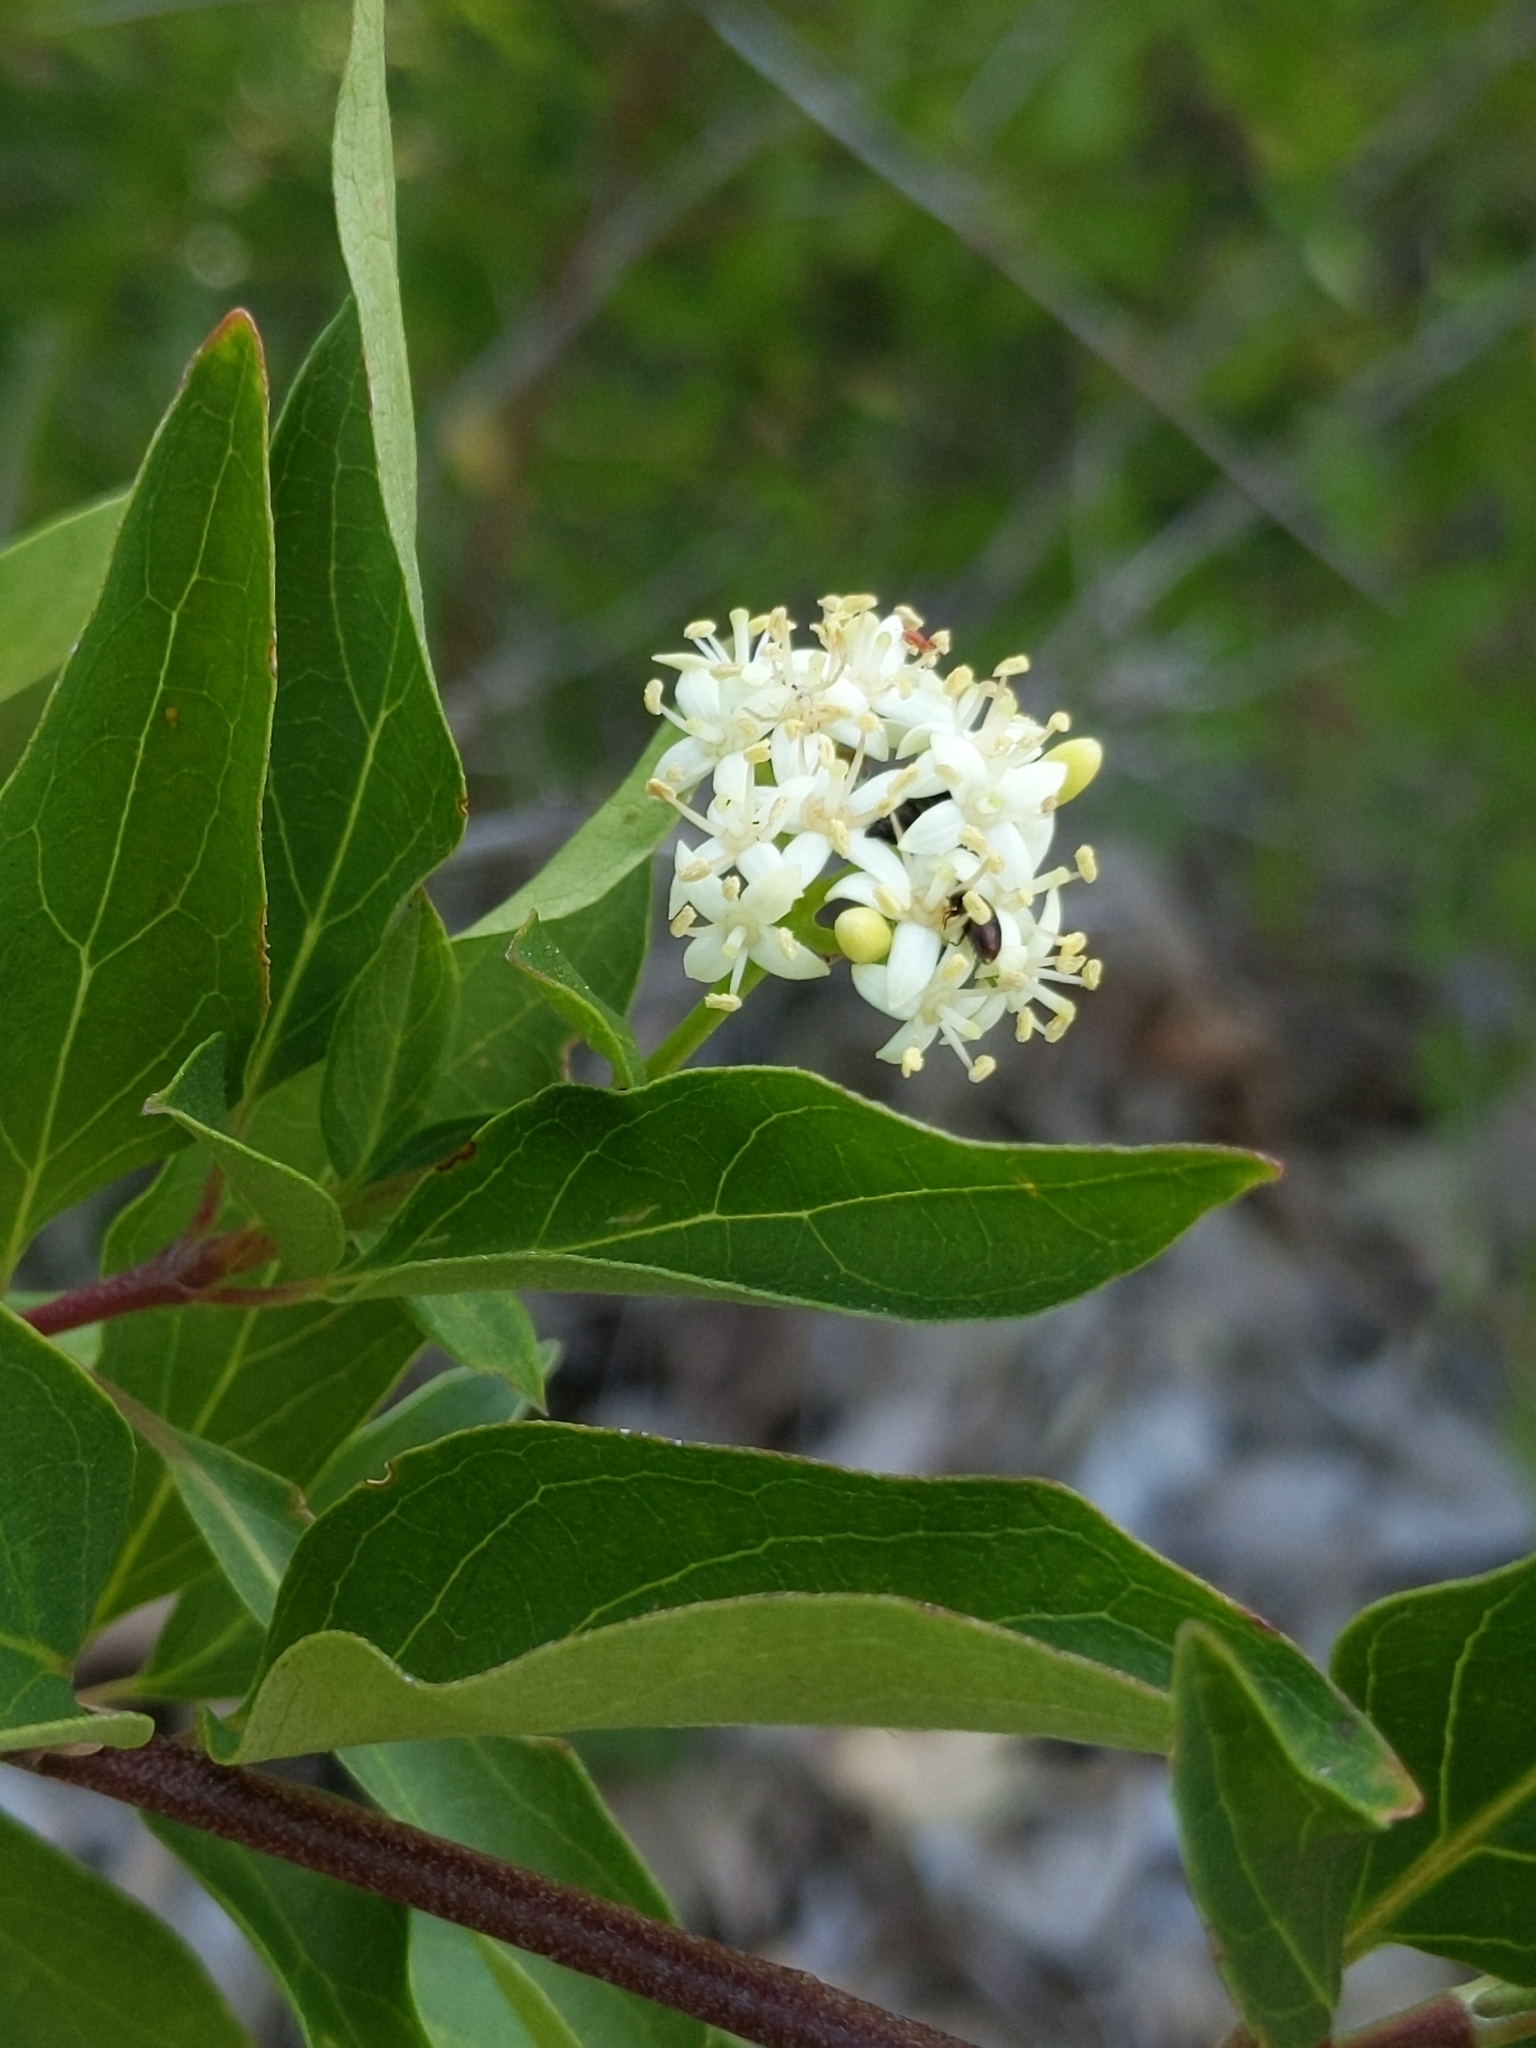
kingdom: Plantae
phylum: Tracheophyta
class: Magnoliopsida
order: Cornales
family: Cornaceae
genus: Cornus
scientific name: Cornus glabrata
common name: Smooth dogwood
